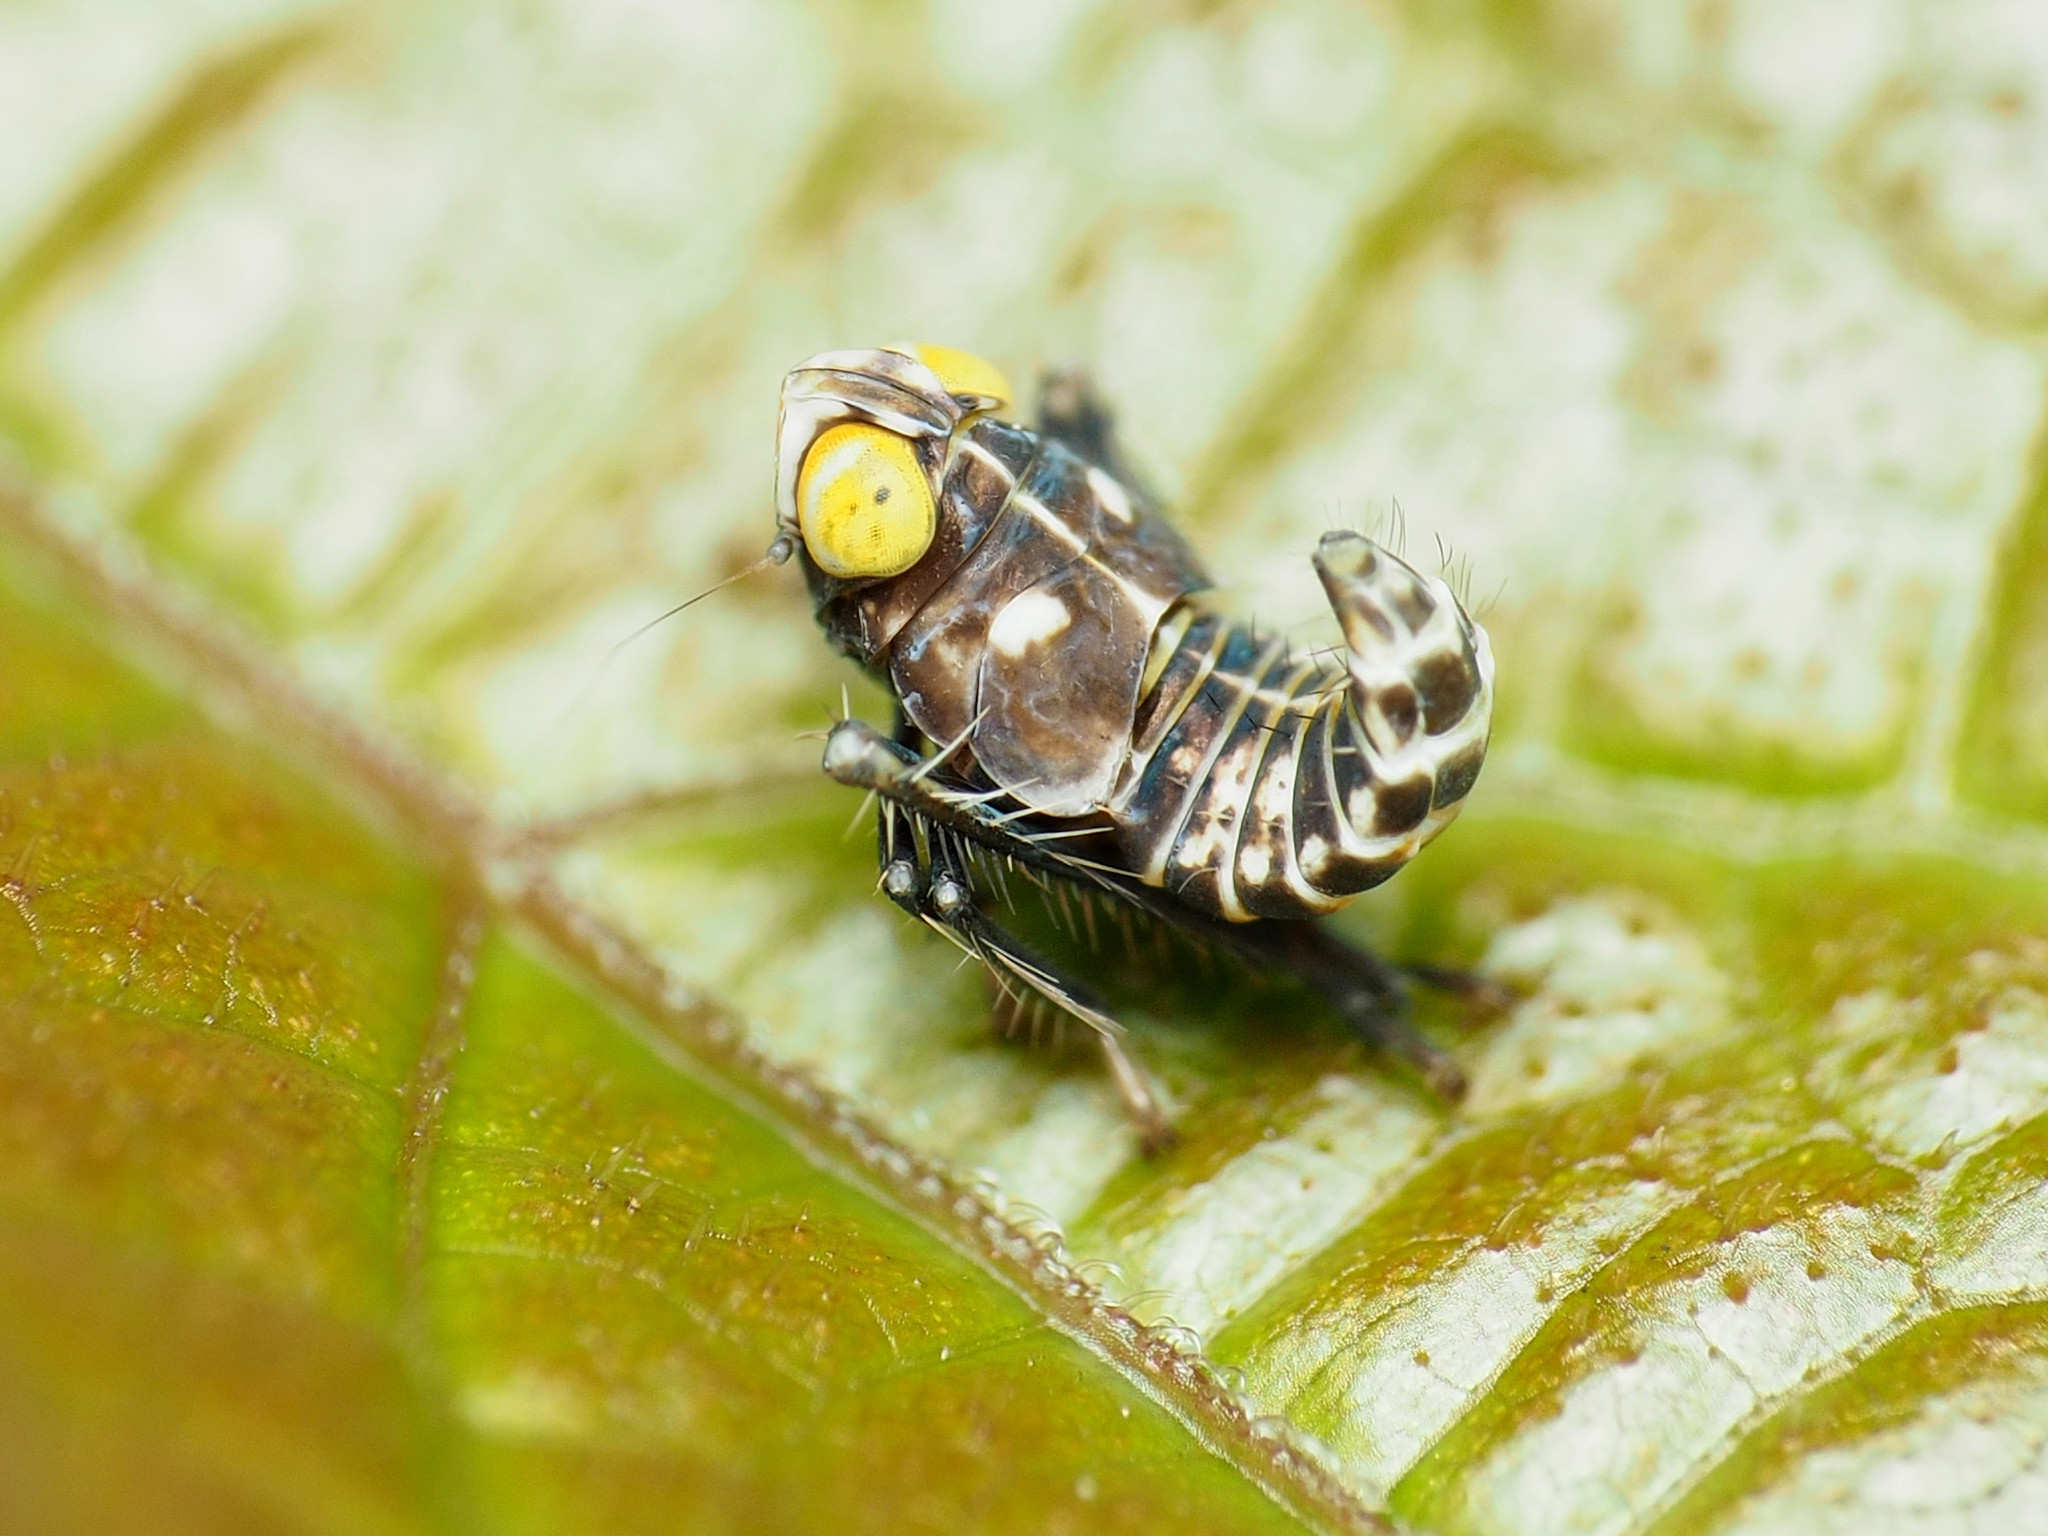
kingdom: Animalia
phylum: Arthropoda
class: Insecta
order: Hemiptera
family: Cicadellidae
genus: Jikradia
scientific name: Jikradia olitoria
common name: Coppery leafhopper
